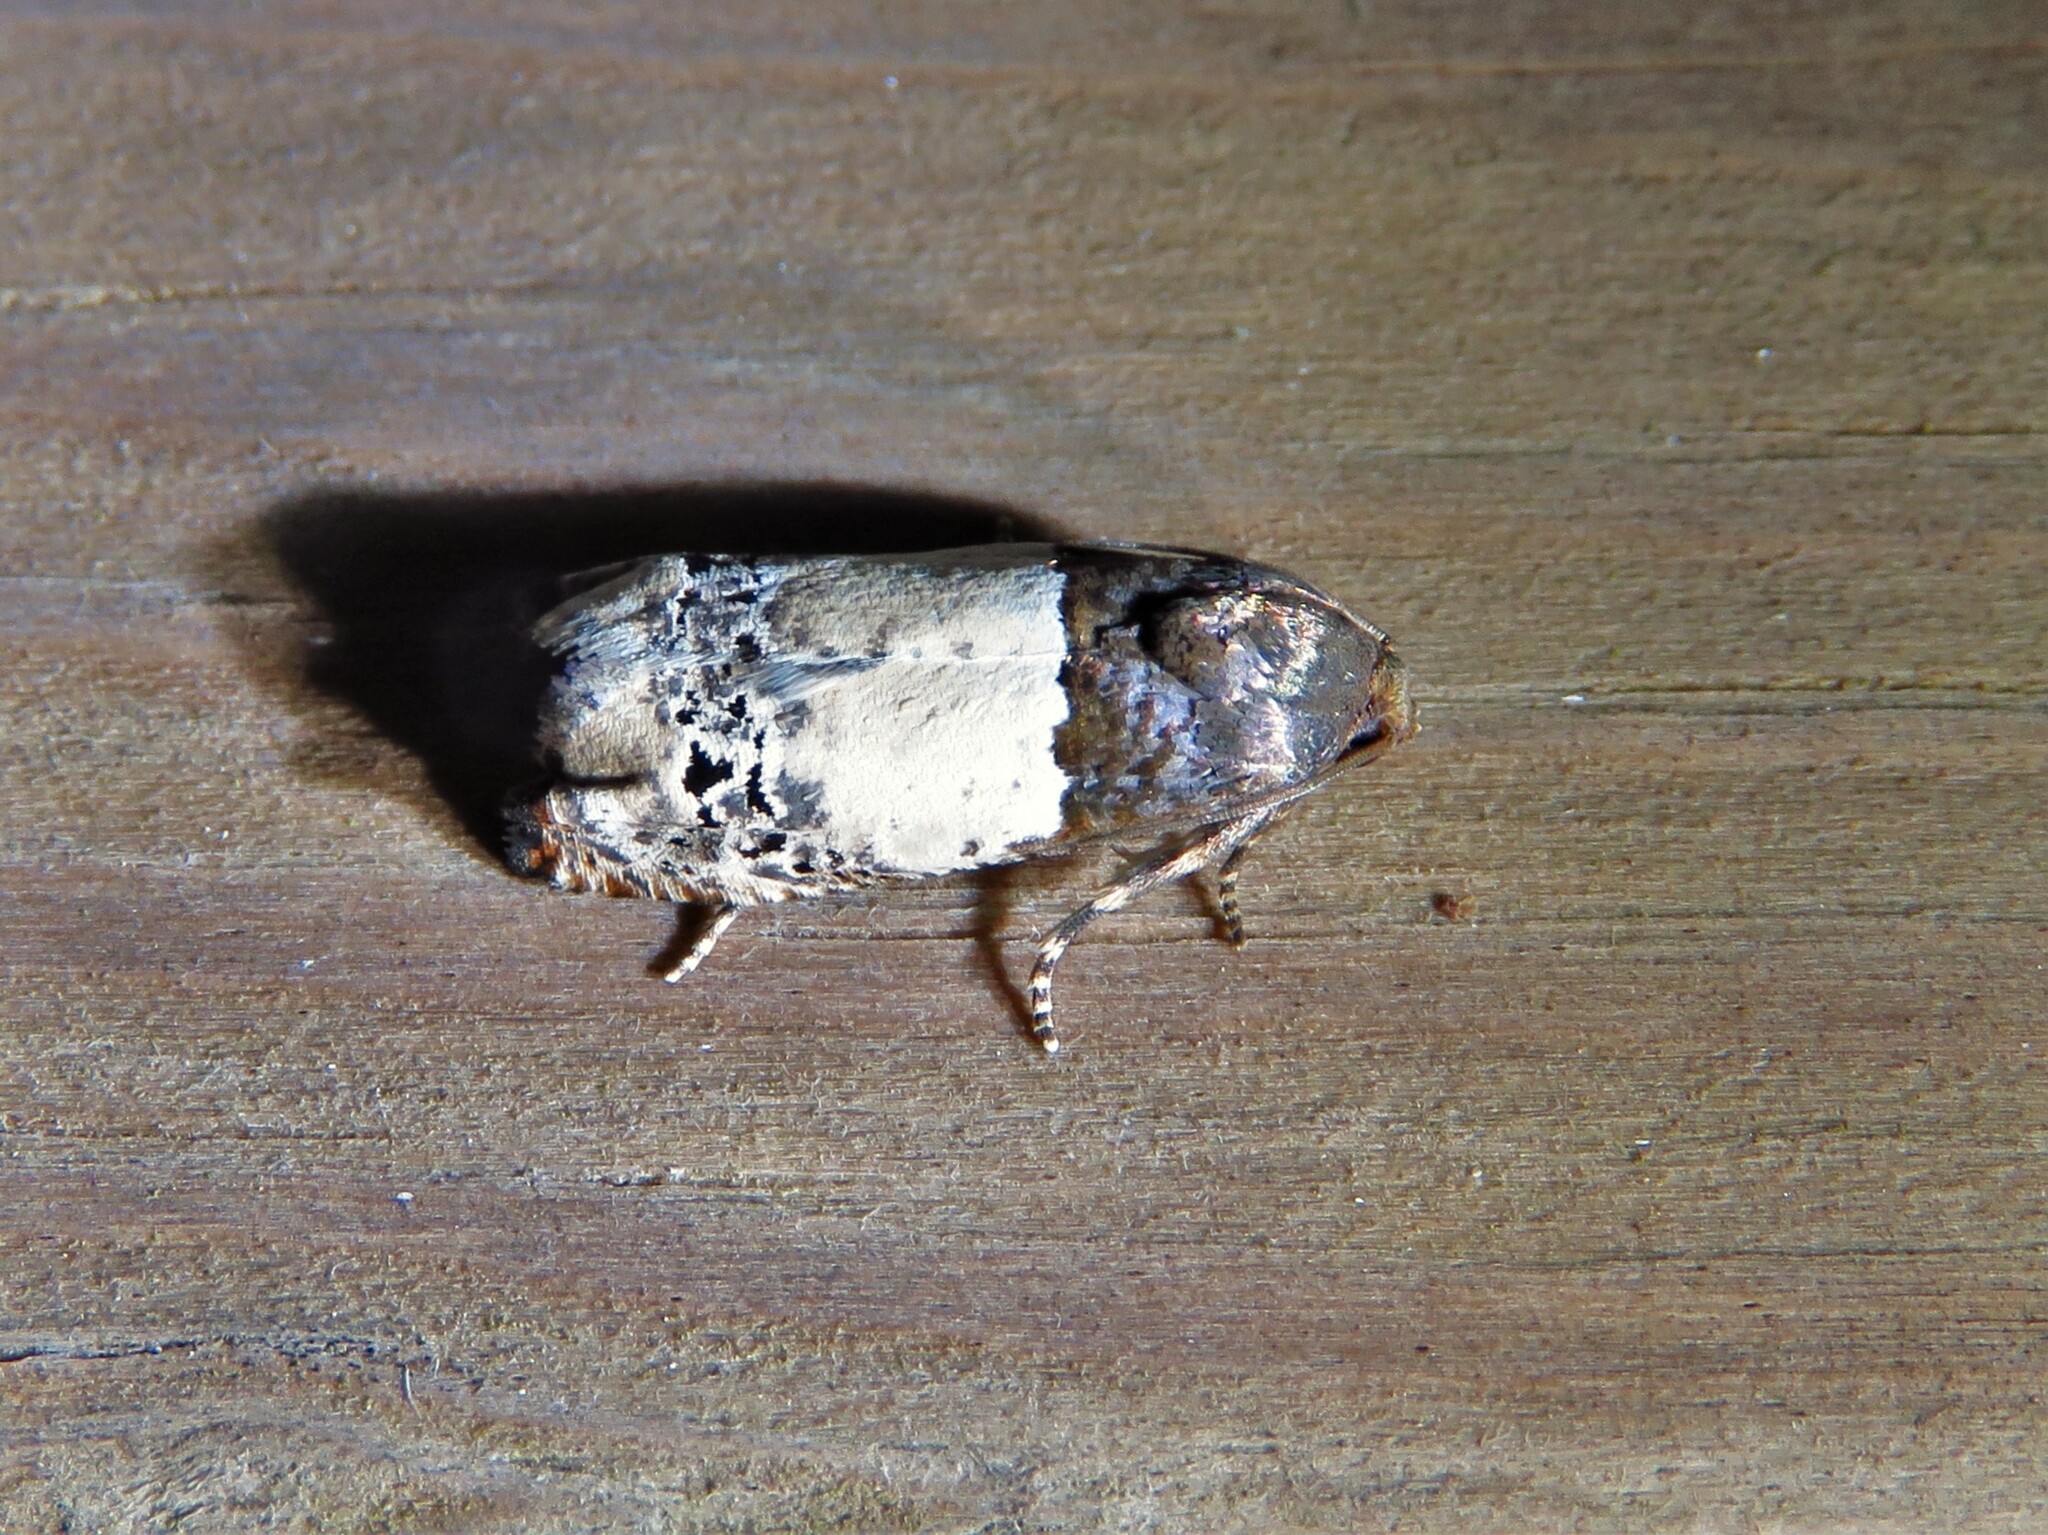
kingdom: Animalia
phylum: Arthropoda
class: Insecta
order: Lepidoptera
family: Tortricidae
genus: Epiblema
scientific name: Epiblema scudderiana
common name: Goldenrod gall moth
